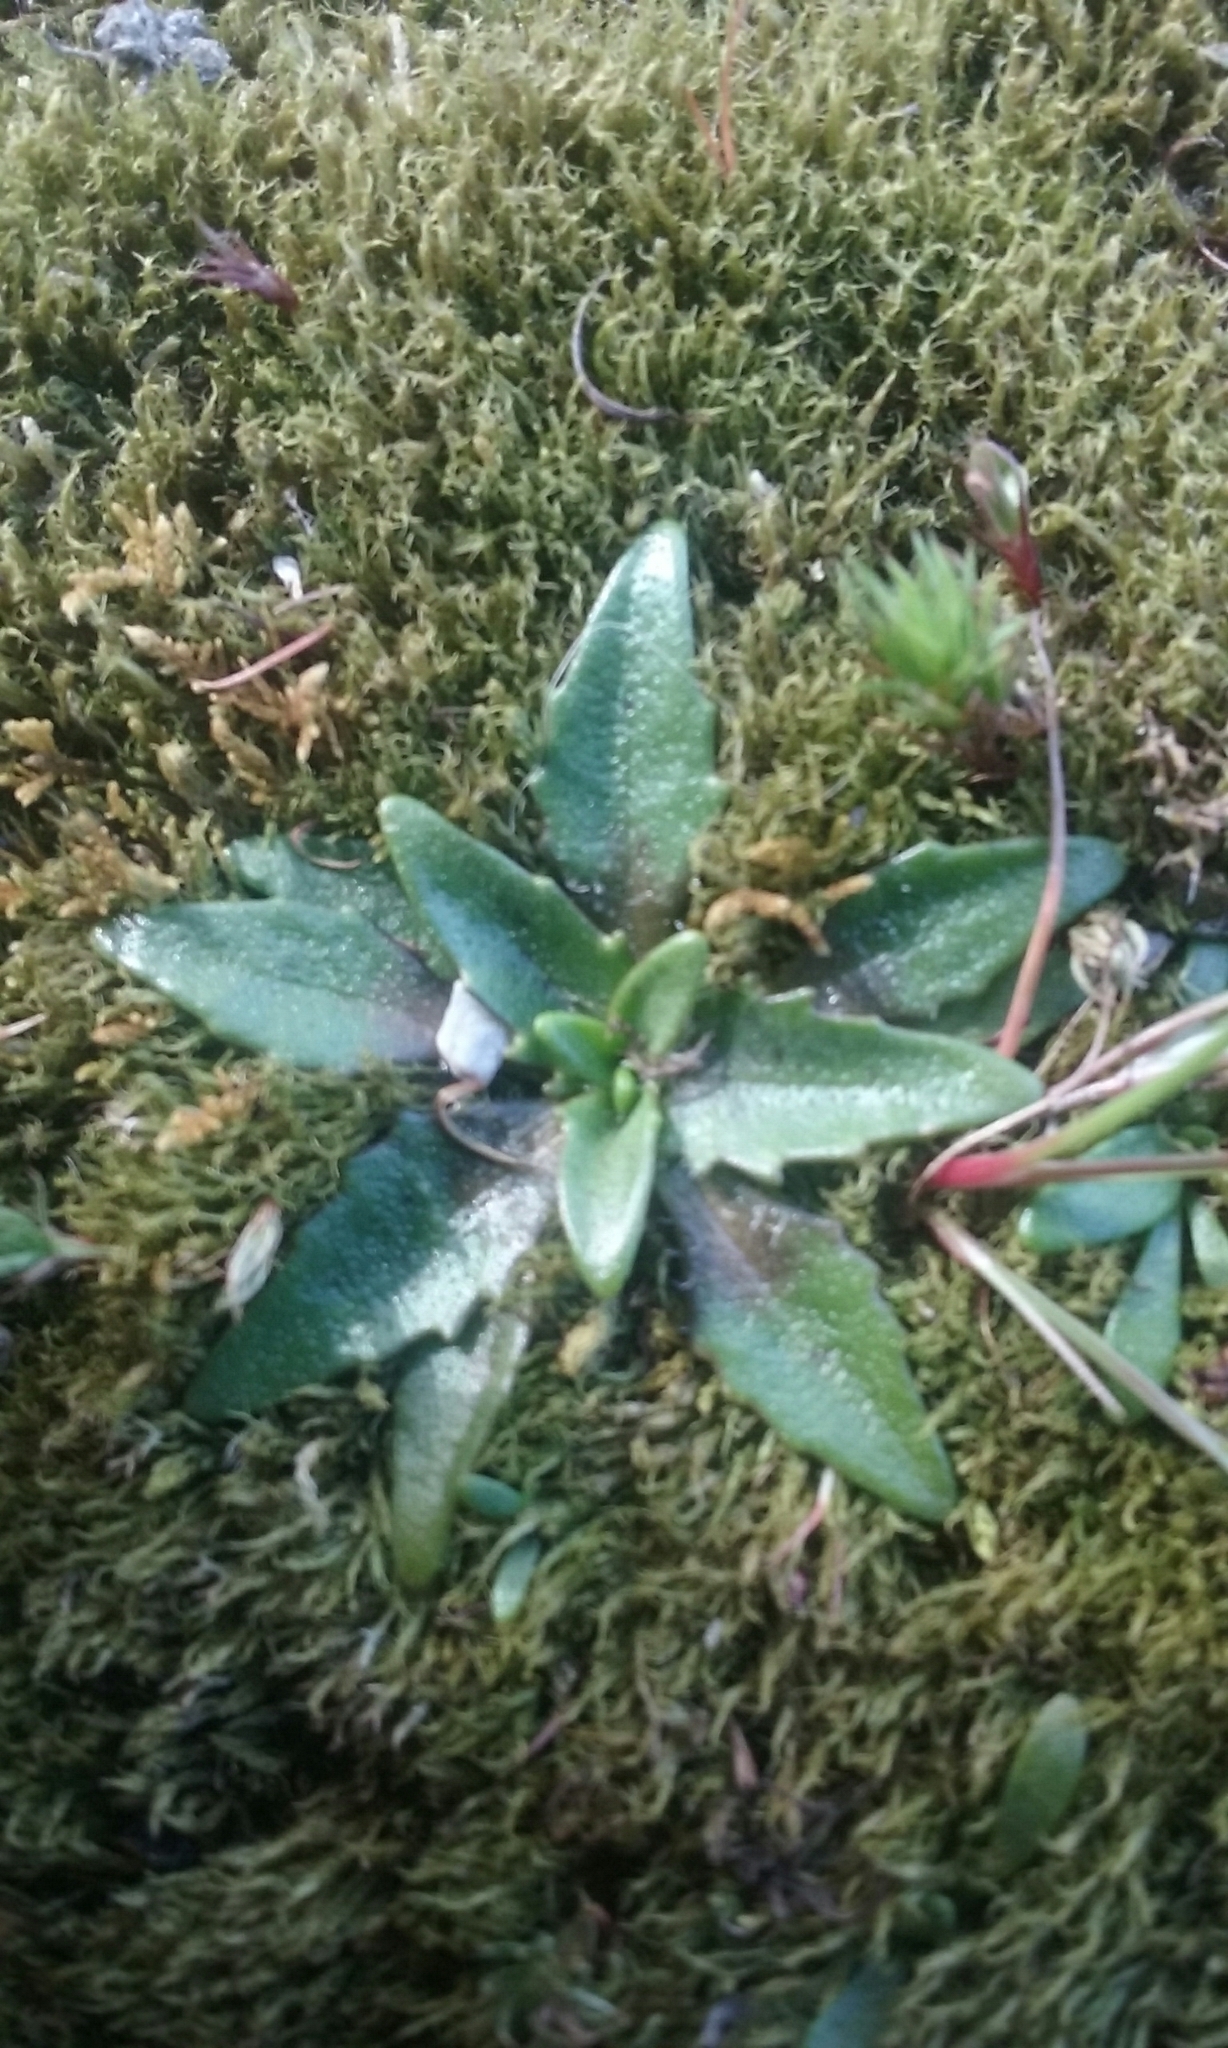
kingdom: Plantae
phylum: Tracheophyta
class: Magnoliopsida
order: Lamiales
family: Plantaginaceae
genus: Plantago
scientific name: Plantago triandra
